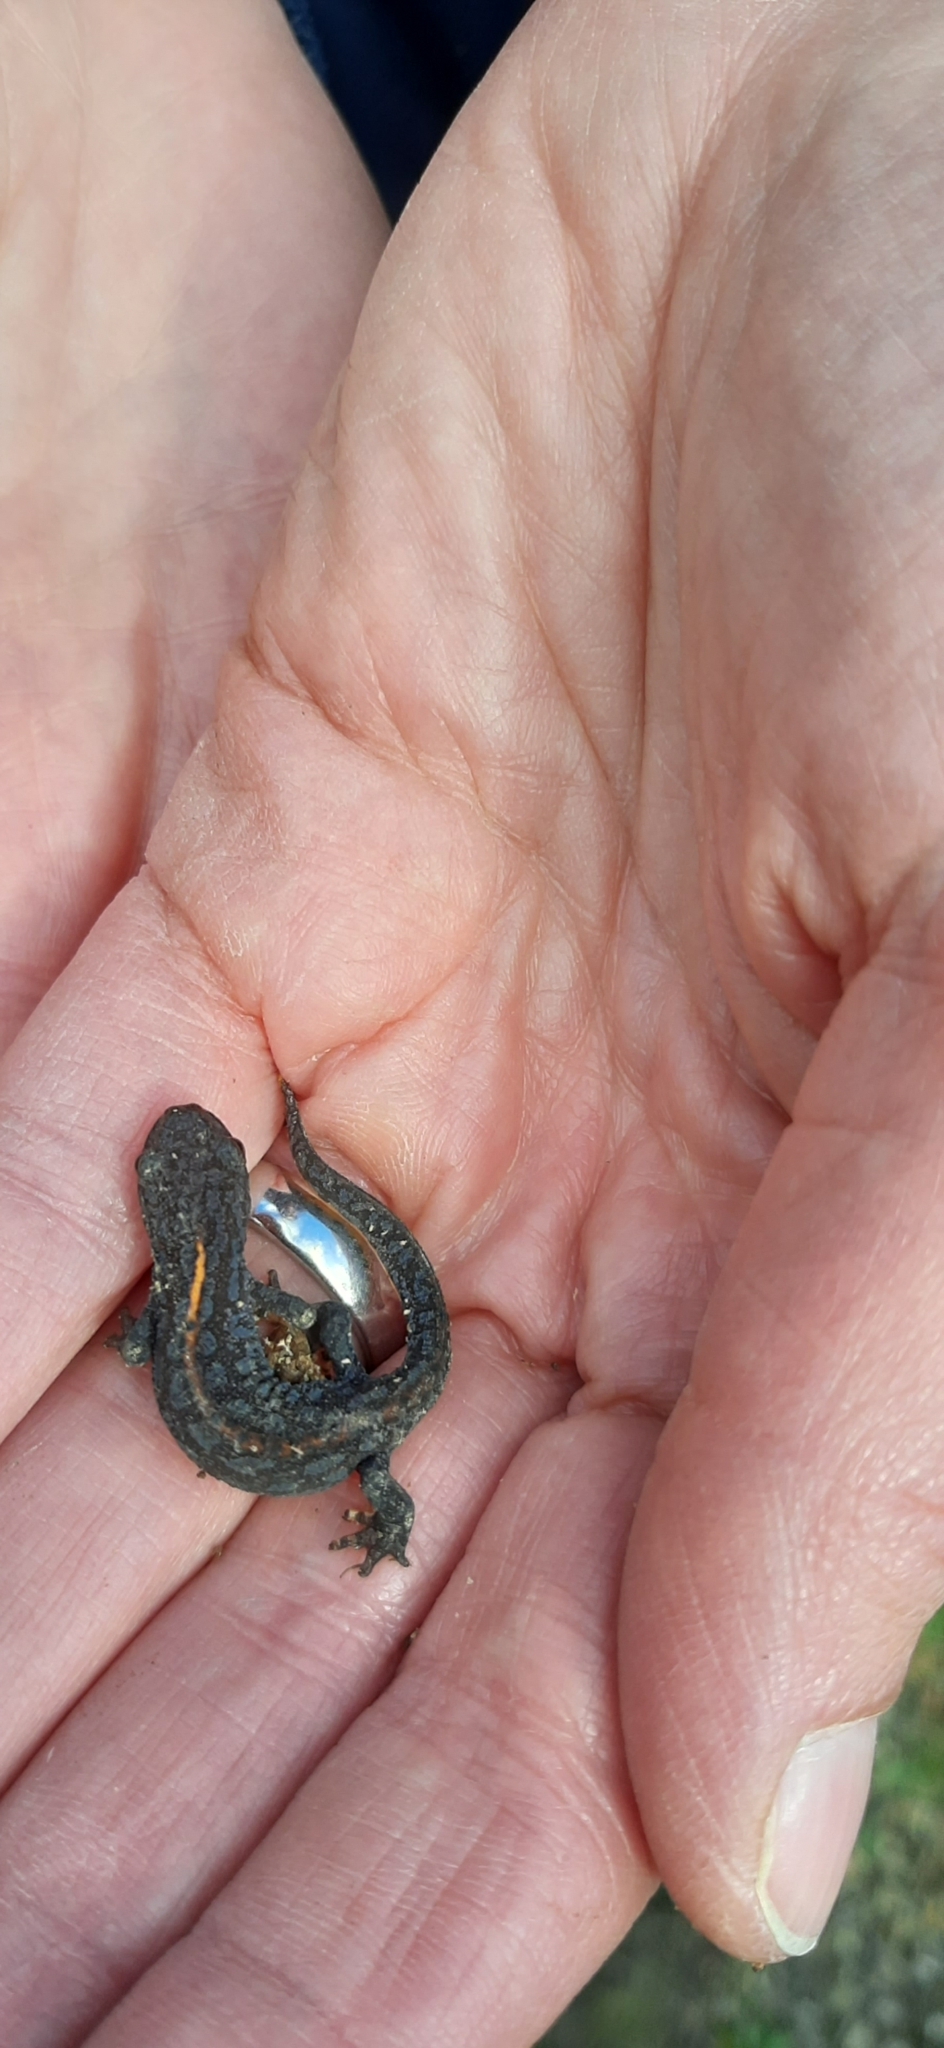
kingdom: Animalia
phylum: Chordata
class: Amphibia
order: Caudata
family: Salamandridae
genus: Ichthyosaura
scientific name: Ichthyosaura alpestris
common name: Alpine newt
